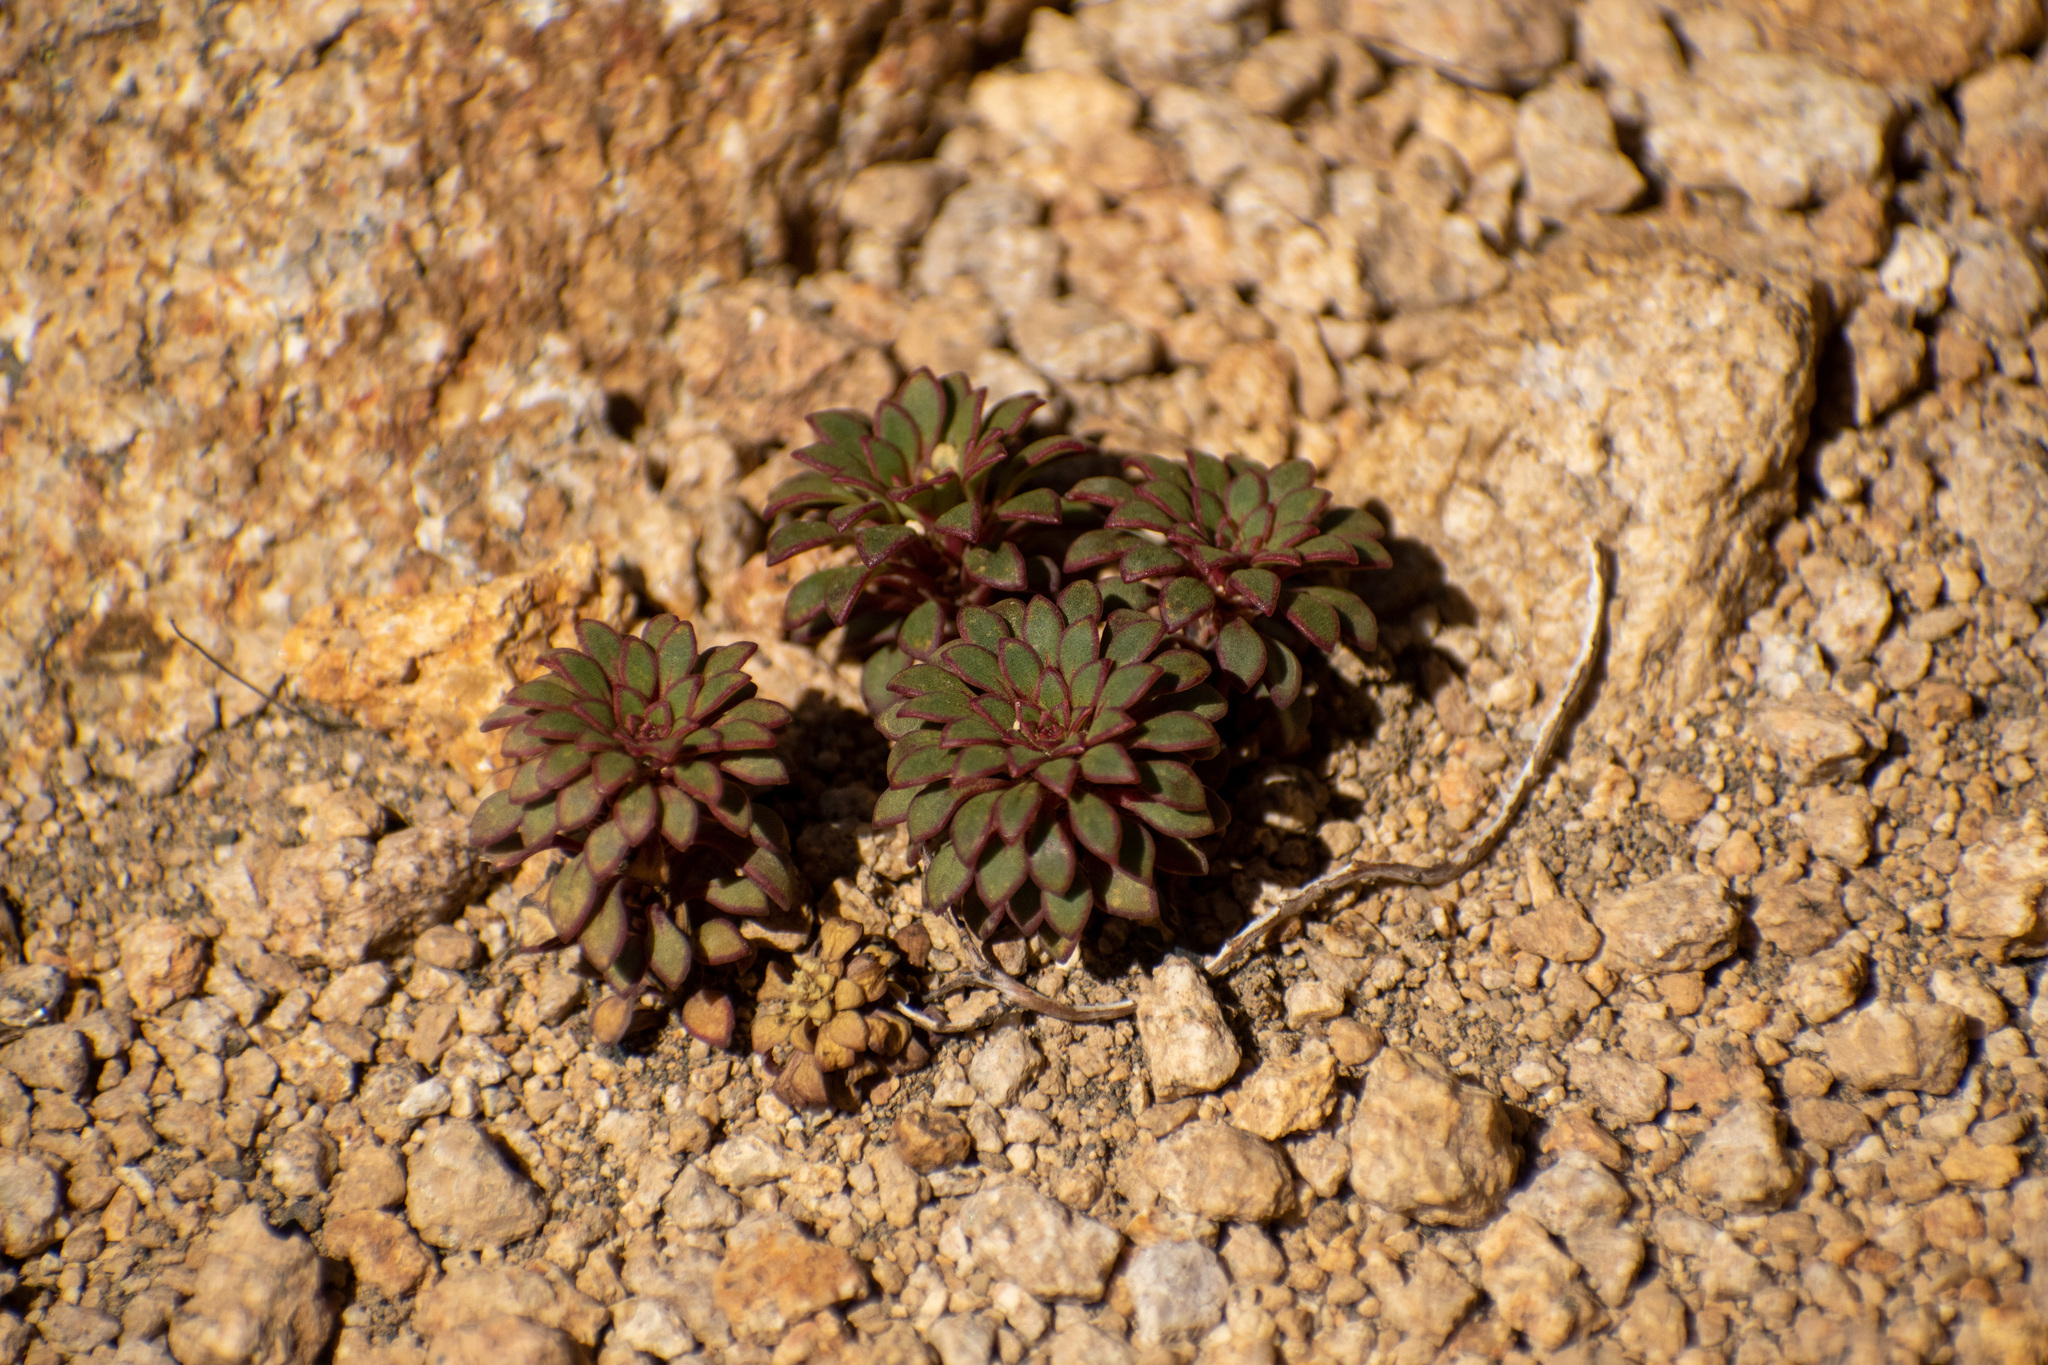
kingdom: Plantae
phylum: Tracheophyta
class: Magnoliopsida
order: Malpighiales
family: Violaceae
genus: Viola
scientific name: Viola sacculus
